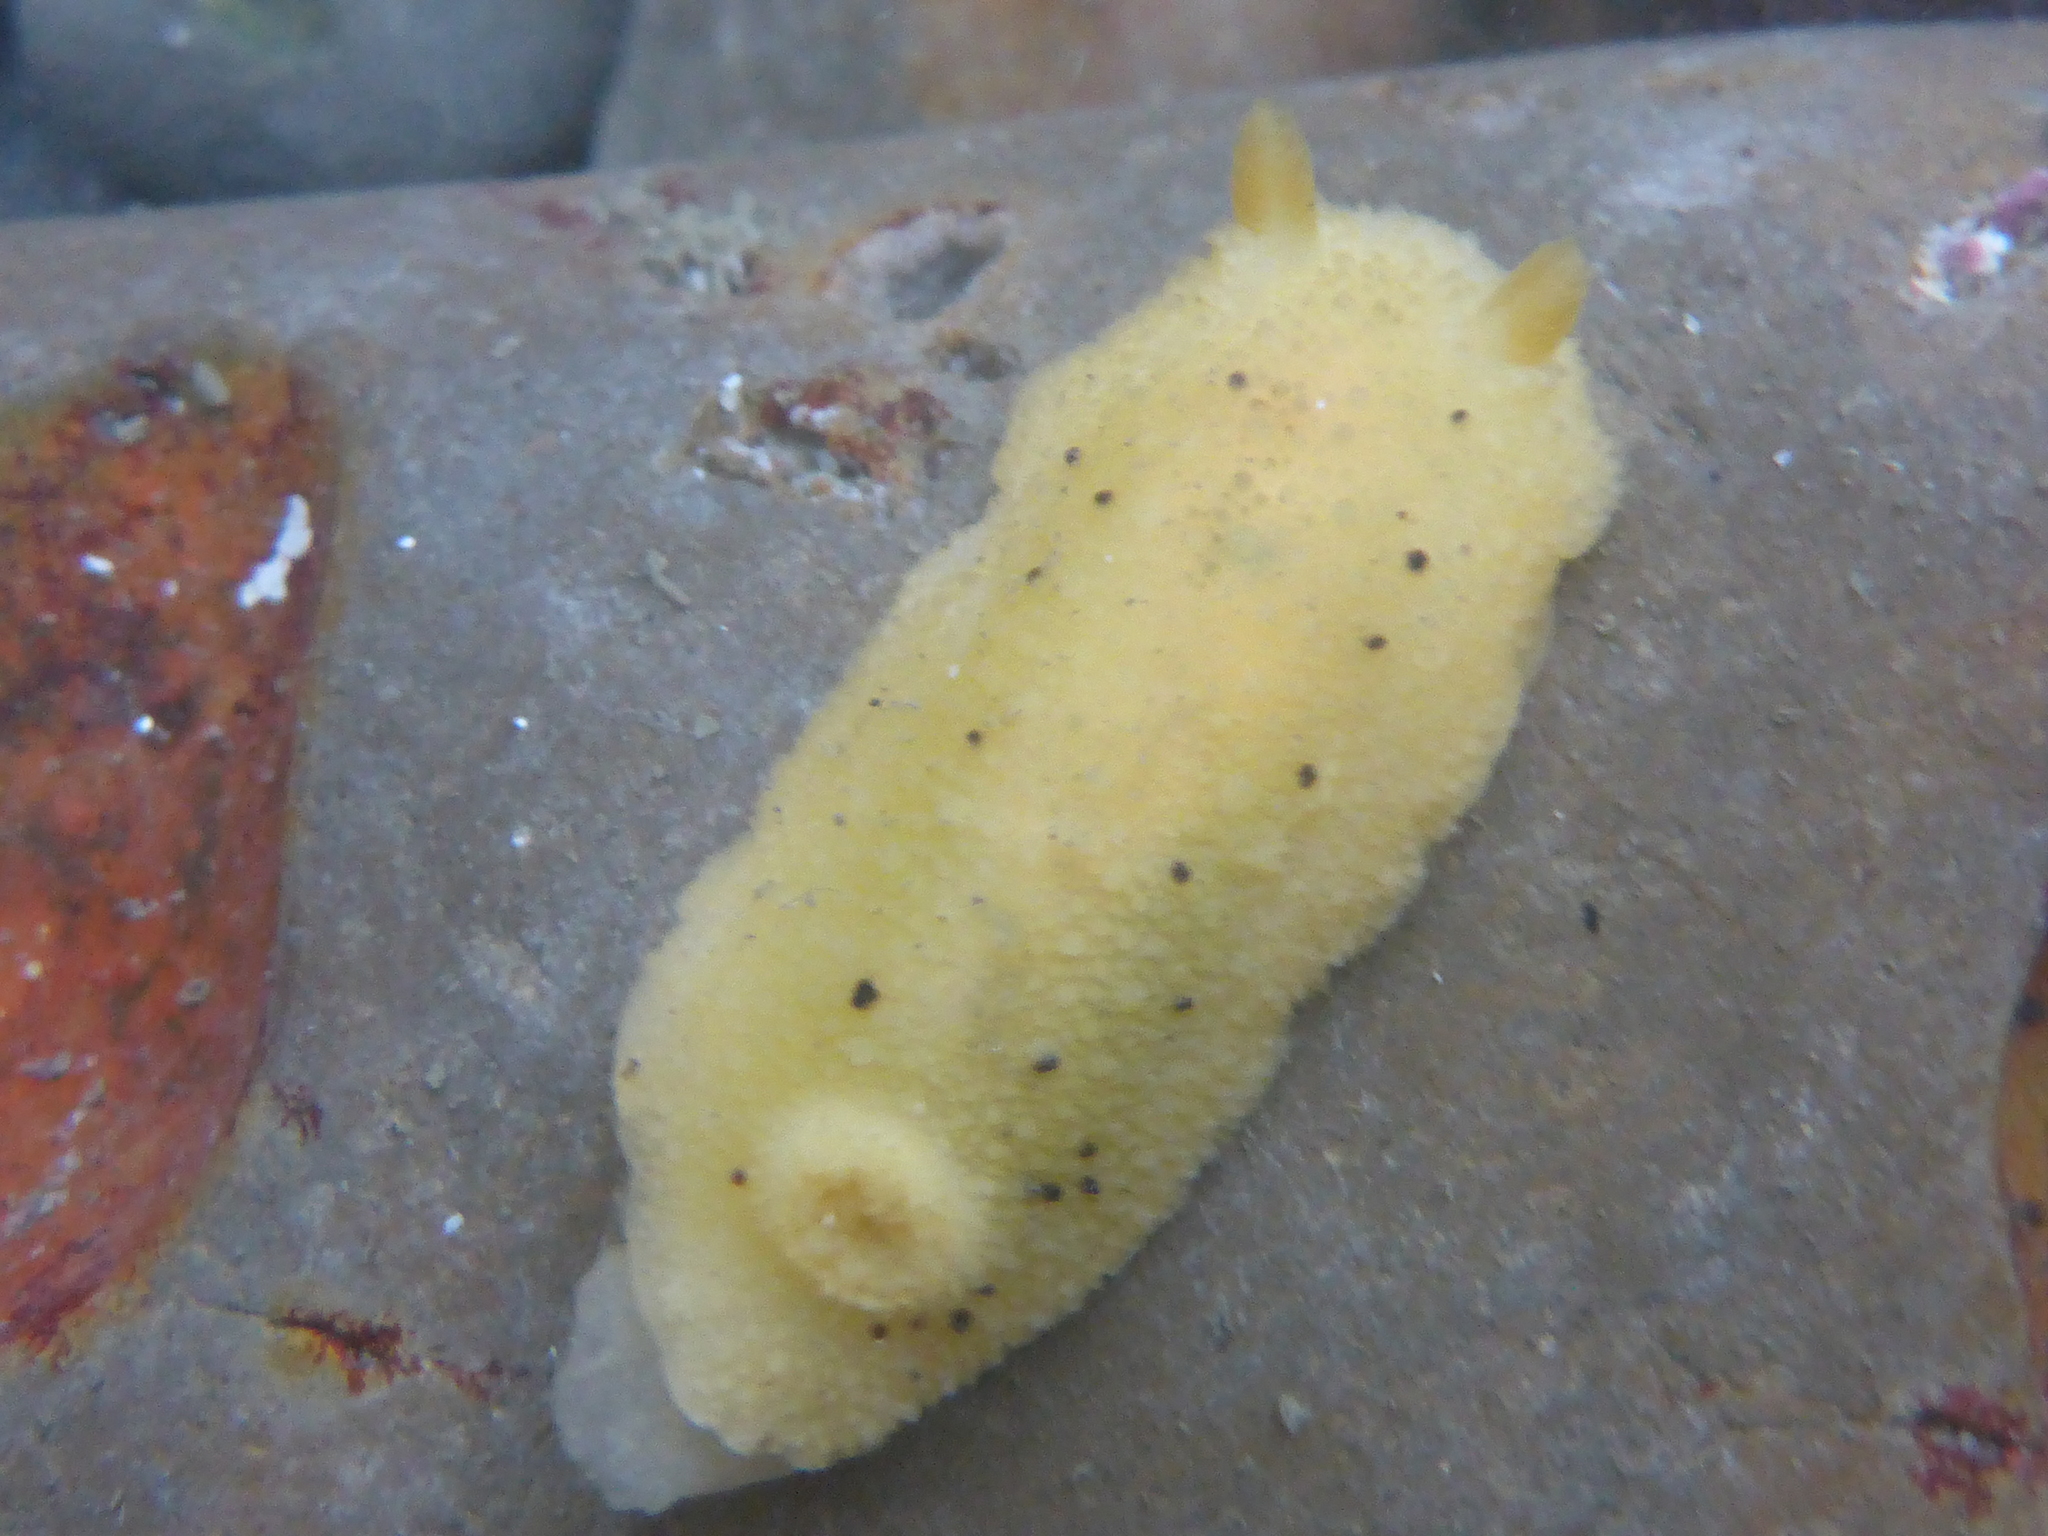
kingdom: Animalia
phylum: Mollusca
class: Gastropoda
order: Nudibranchia
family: Dorididae
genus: Doris
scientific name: Doris montereyensis
